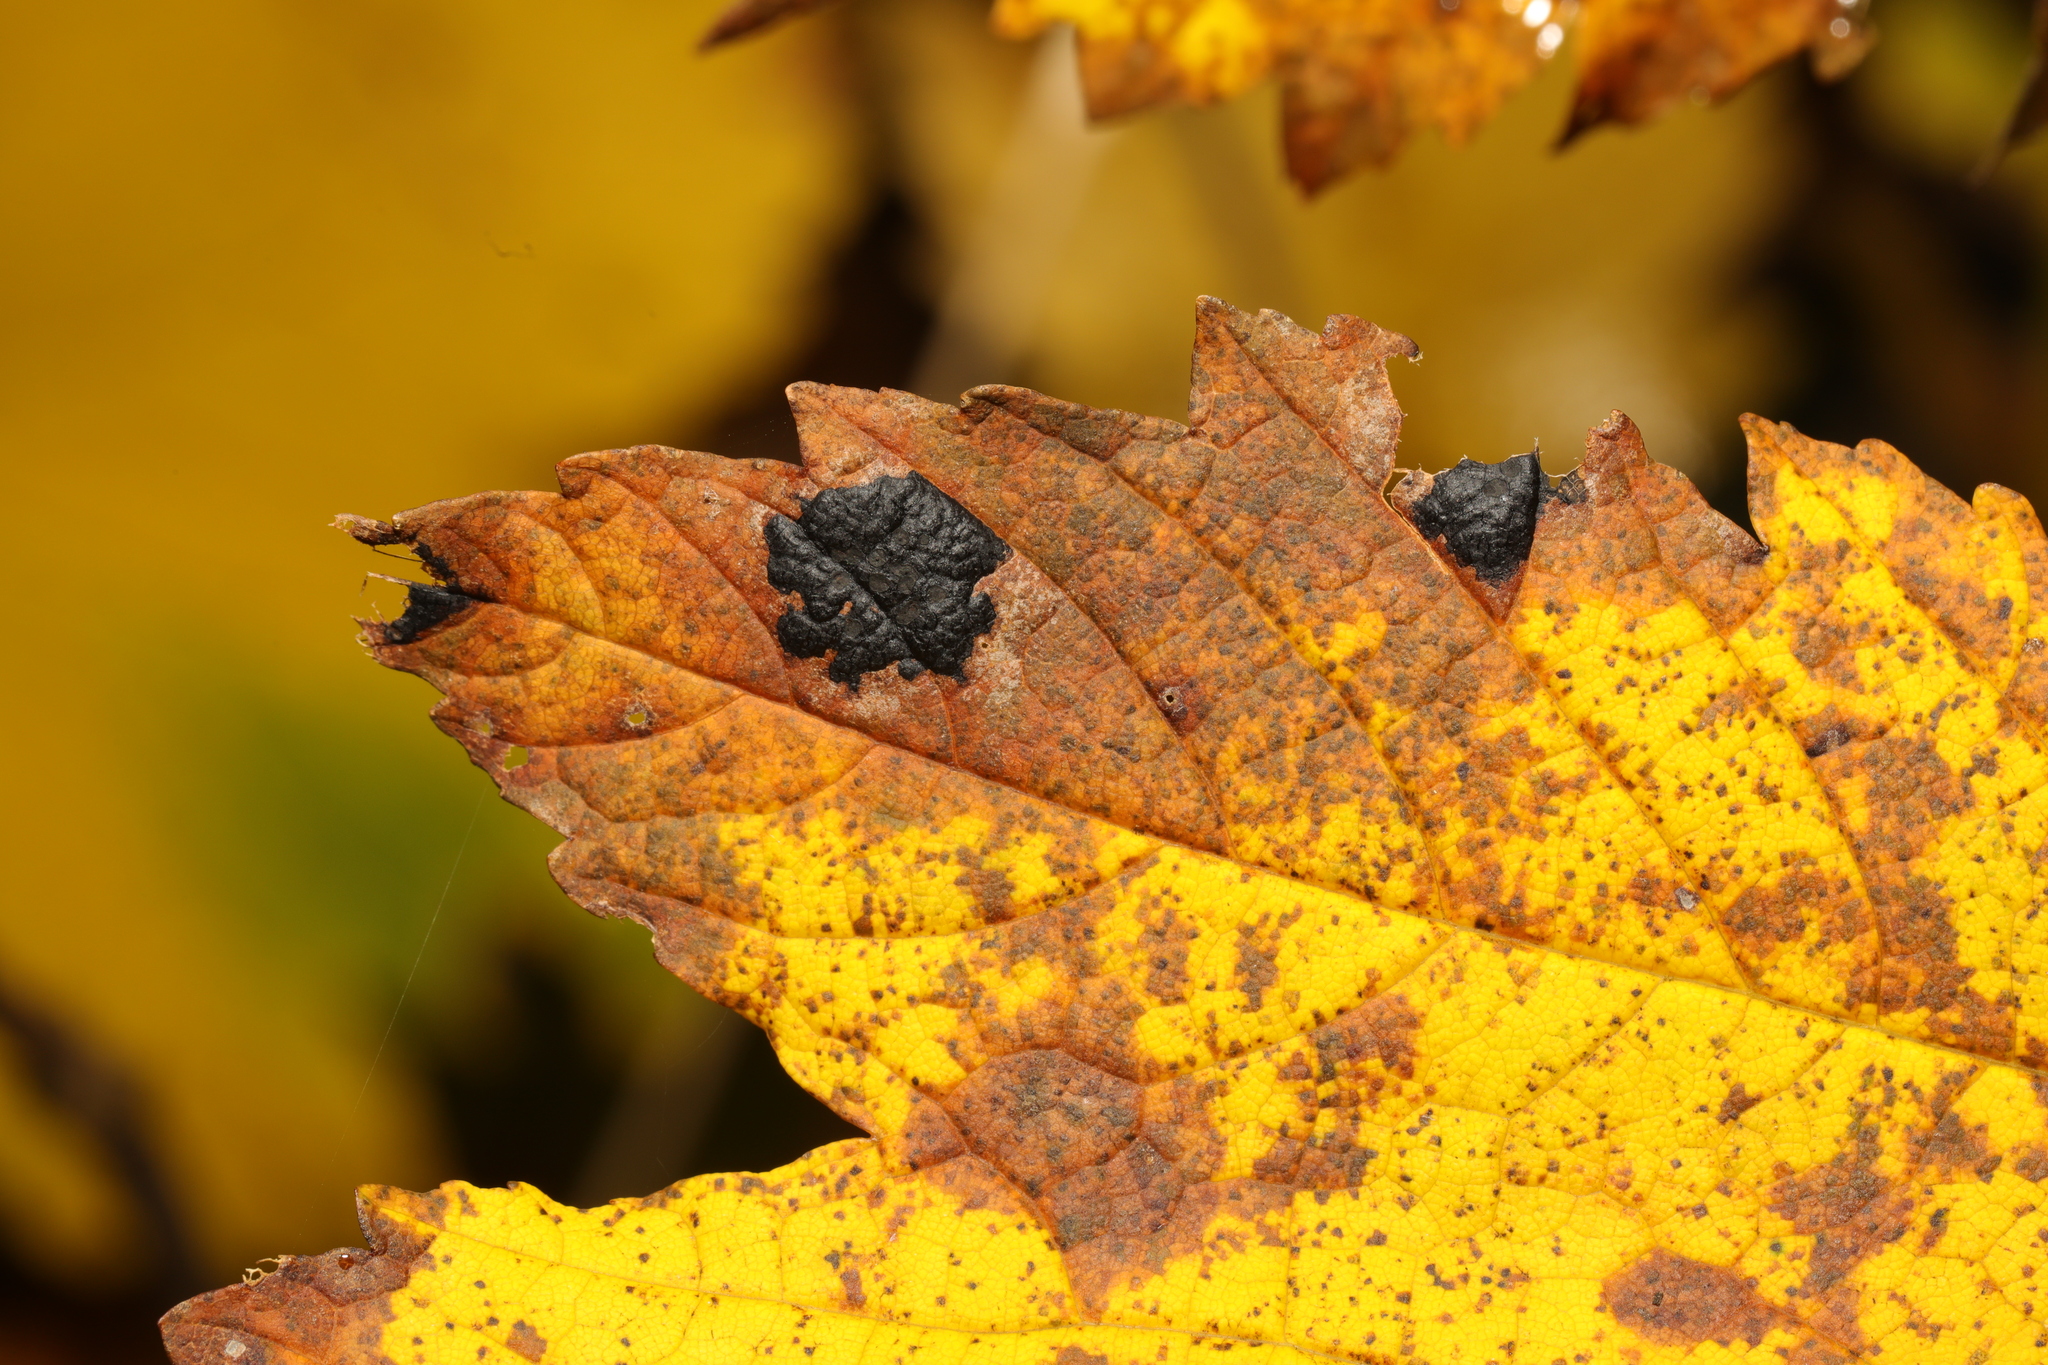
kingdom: Fungi
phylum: Ascomycota
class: Leotiomycetes
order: Rhytismatales
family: Rhytismataceae
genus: Rhytisma
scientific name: Rhytisma acerinum
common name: European tar spot
